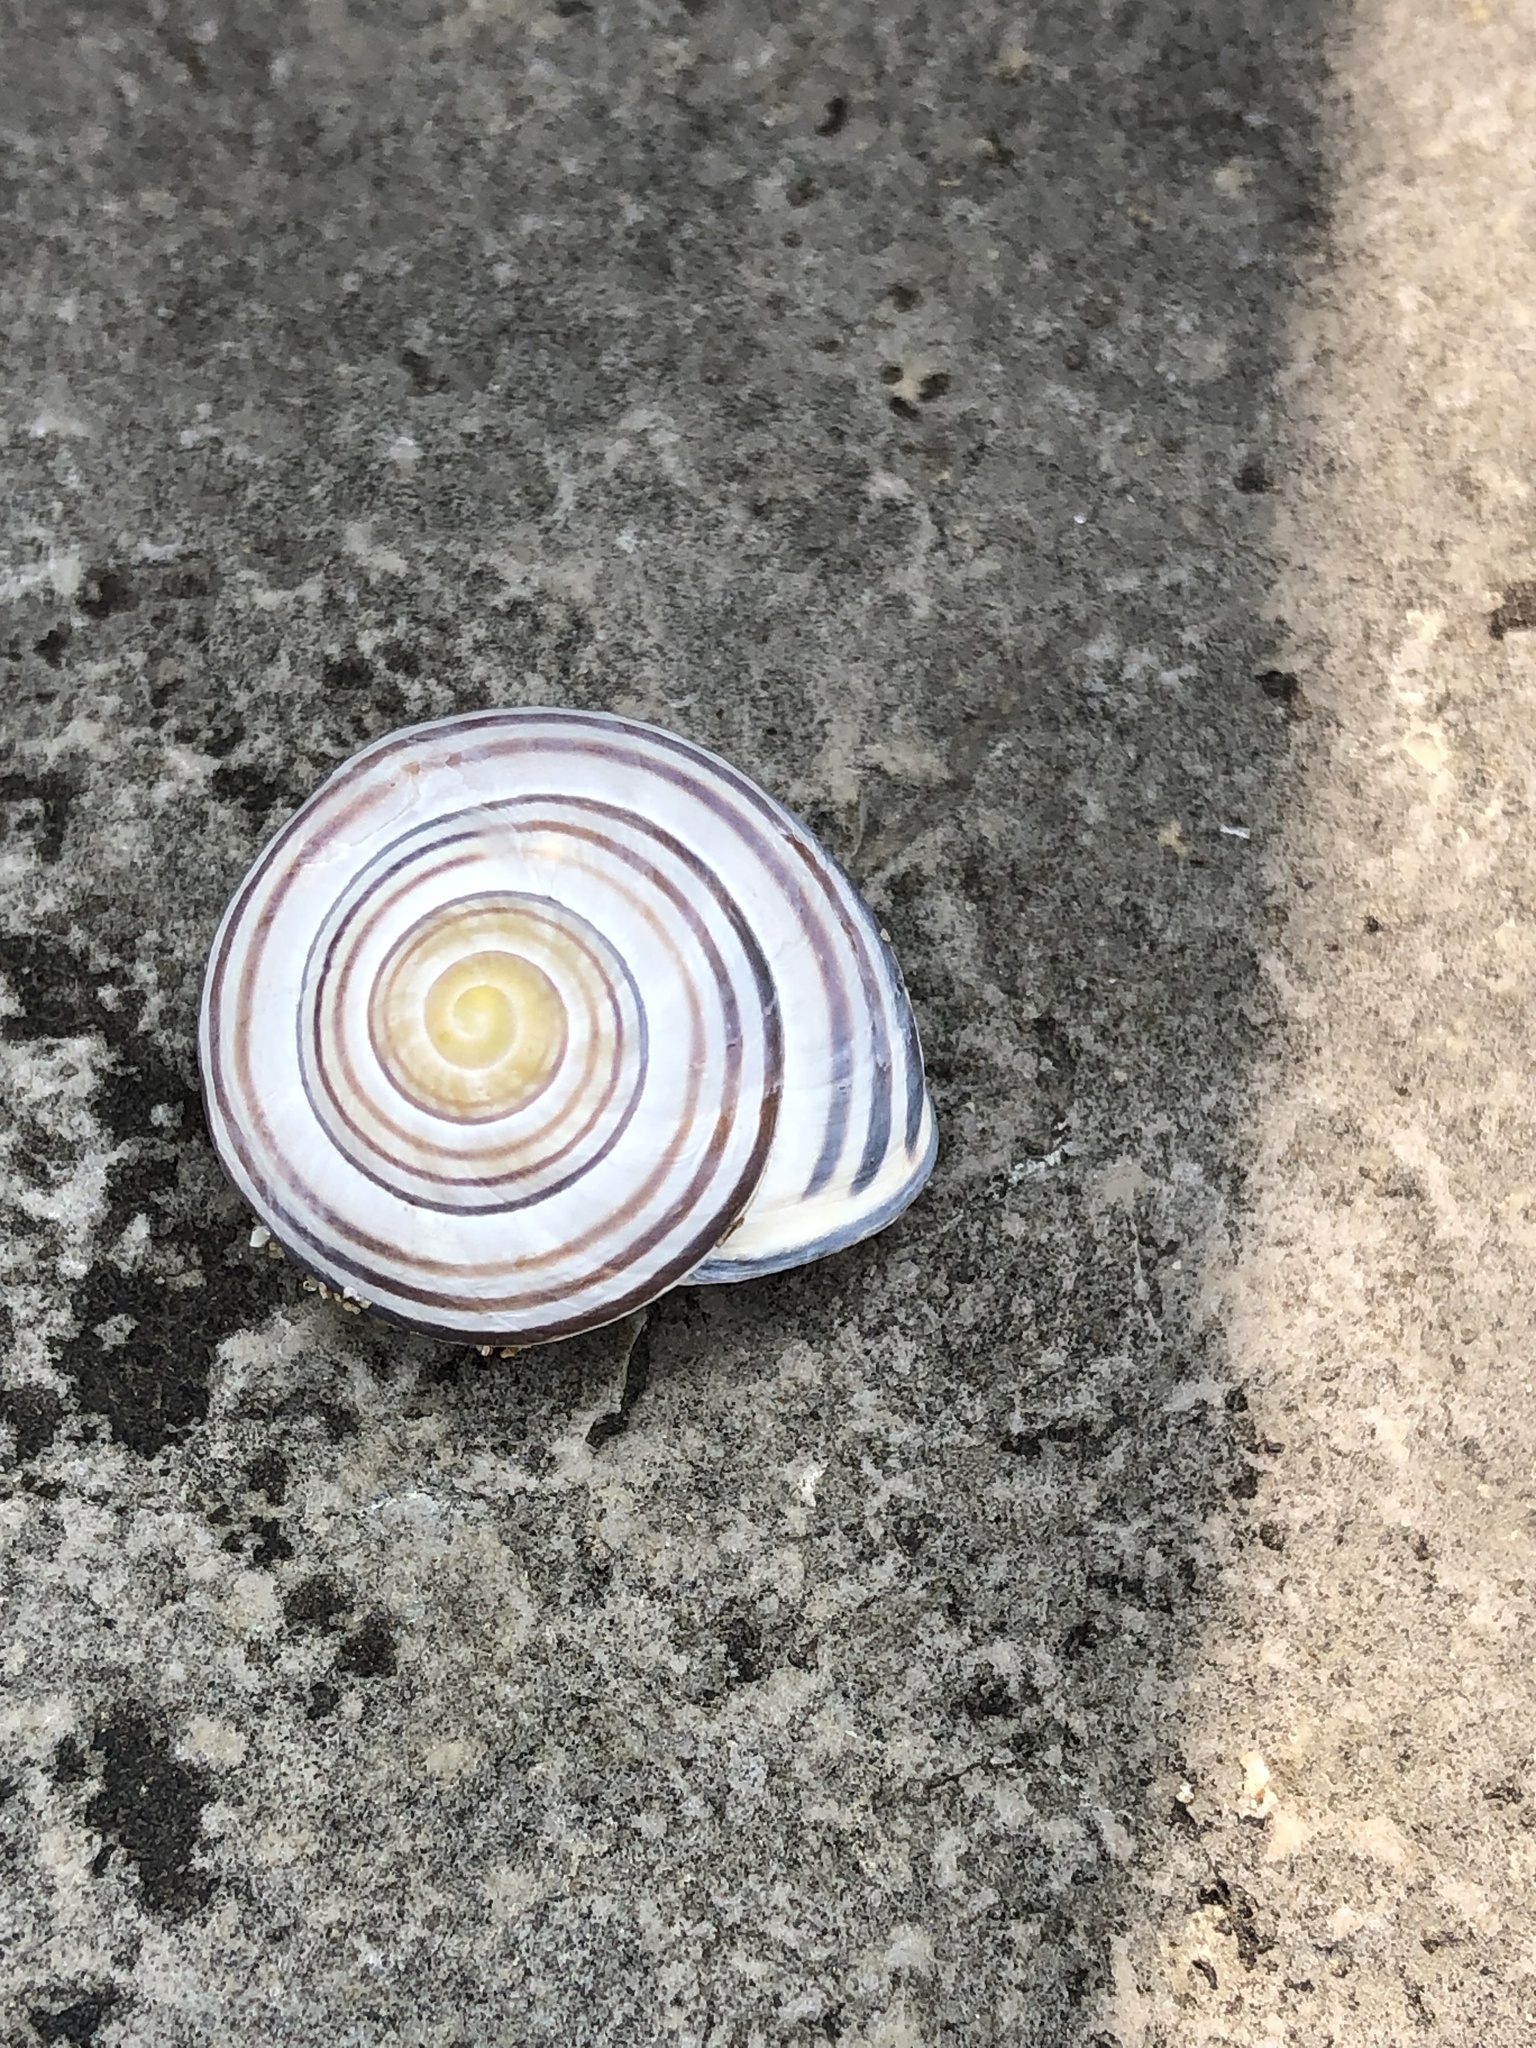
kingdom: Animalia
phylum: Mollusca
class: Gastropoda
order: Stylommatophora
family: Helicidae
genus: Cepaea
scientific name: Cepaea nemoralis
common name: Grovesnail
